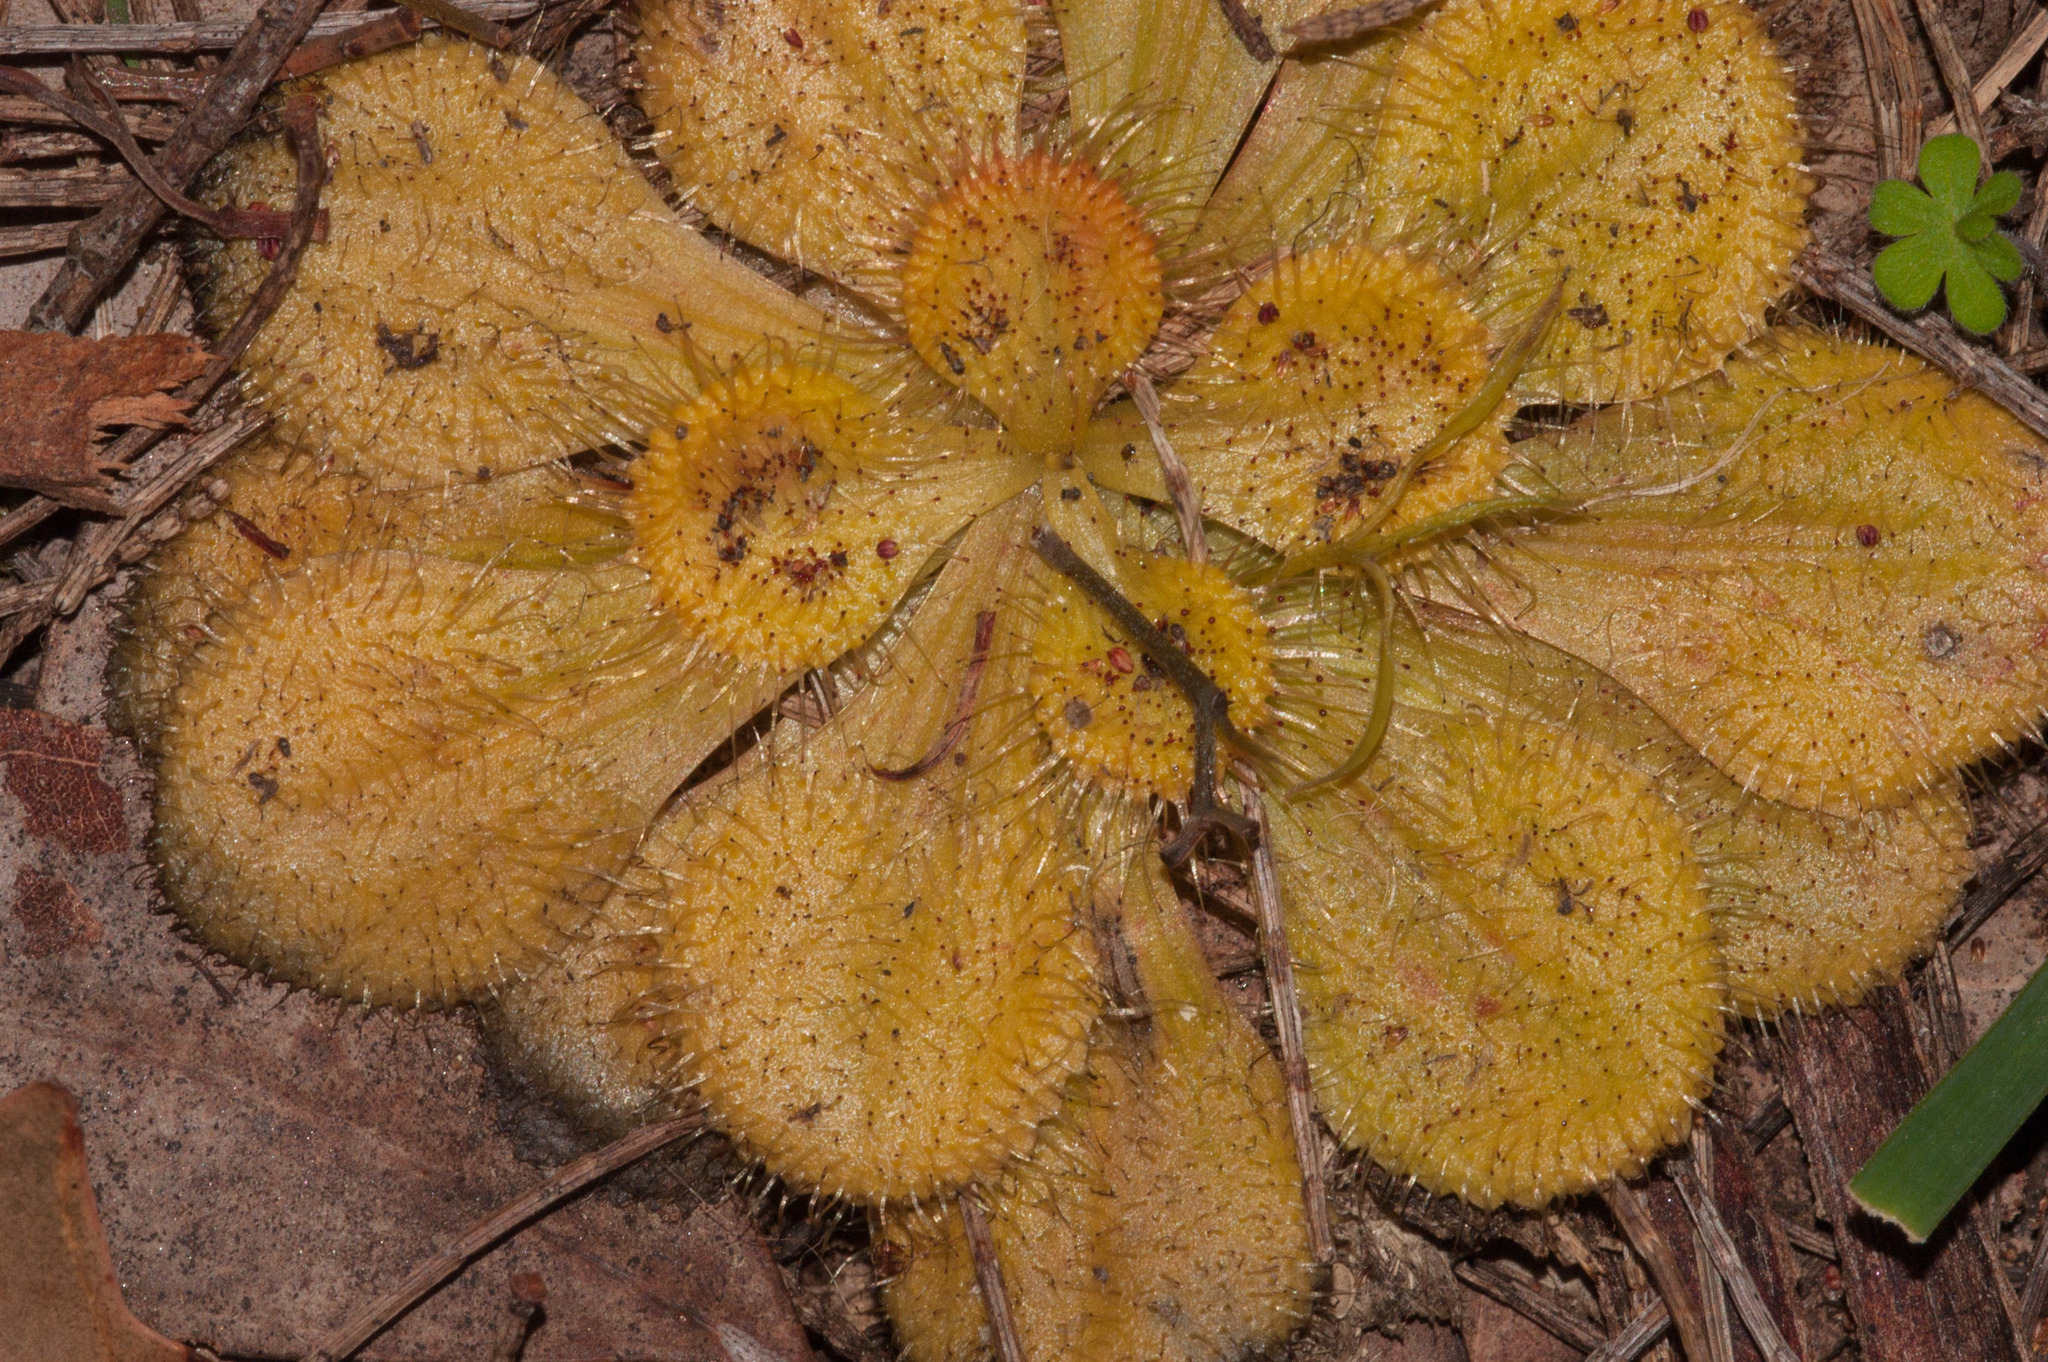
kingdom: Plantae
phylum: Tracheophyta
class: Magnoliopsida
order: Caryophyllales
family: Droseraceae
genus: Drosera
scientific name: Drosera whittakeri
